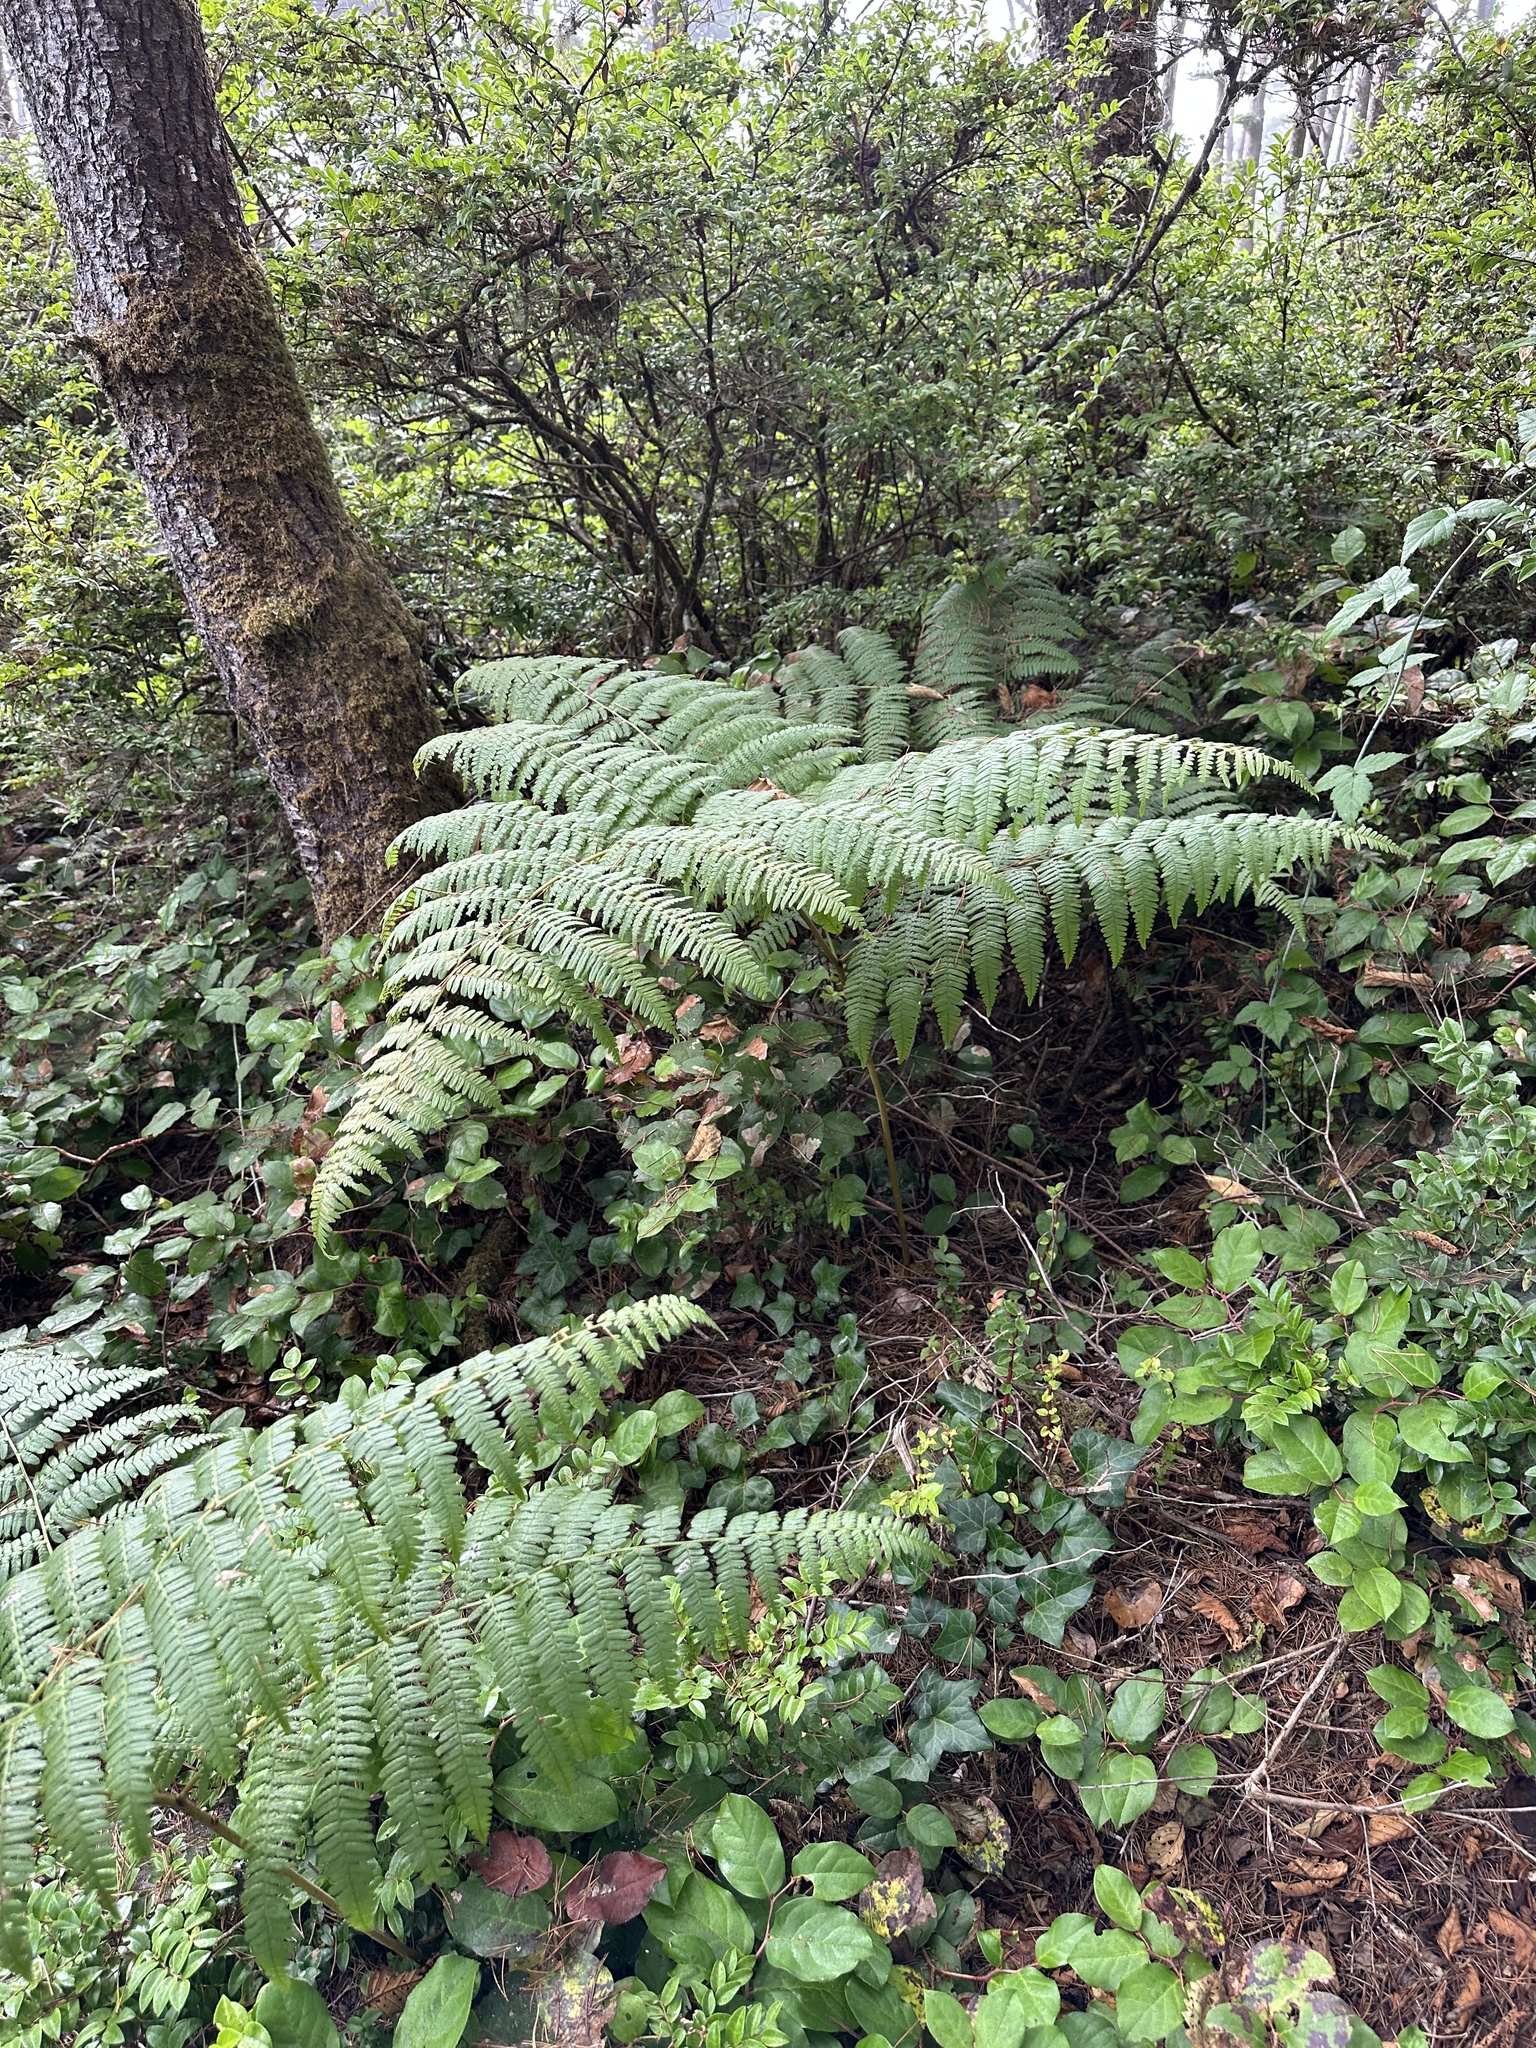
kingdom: Plantae
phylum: Tracheophyta
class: Polypodiopsida
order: Polypodiales
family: Dennstaedtiaceae
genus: Pteridium
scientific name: Pteridium aquilinum
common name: Bracken
